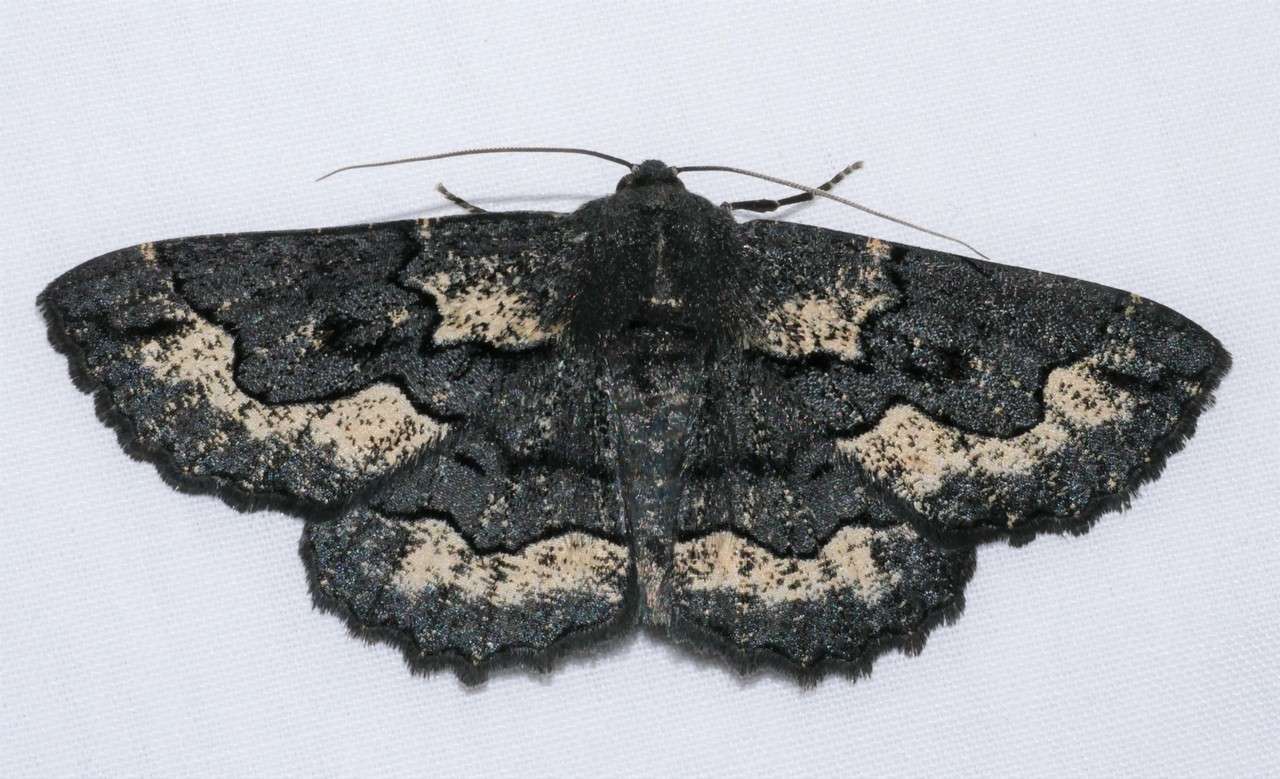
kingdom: Animalia
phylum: Arthropoda
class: Insecta
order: Lepidoptera
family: Geometridae
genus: Melanodes
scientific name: Melanodes anthracitaria
